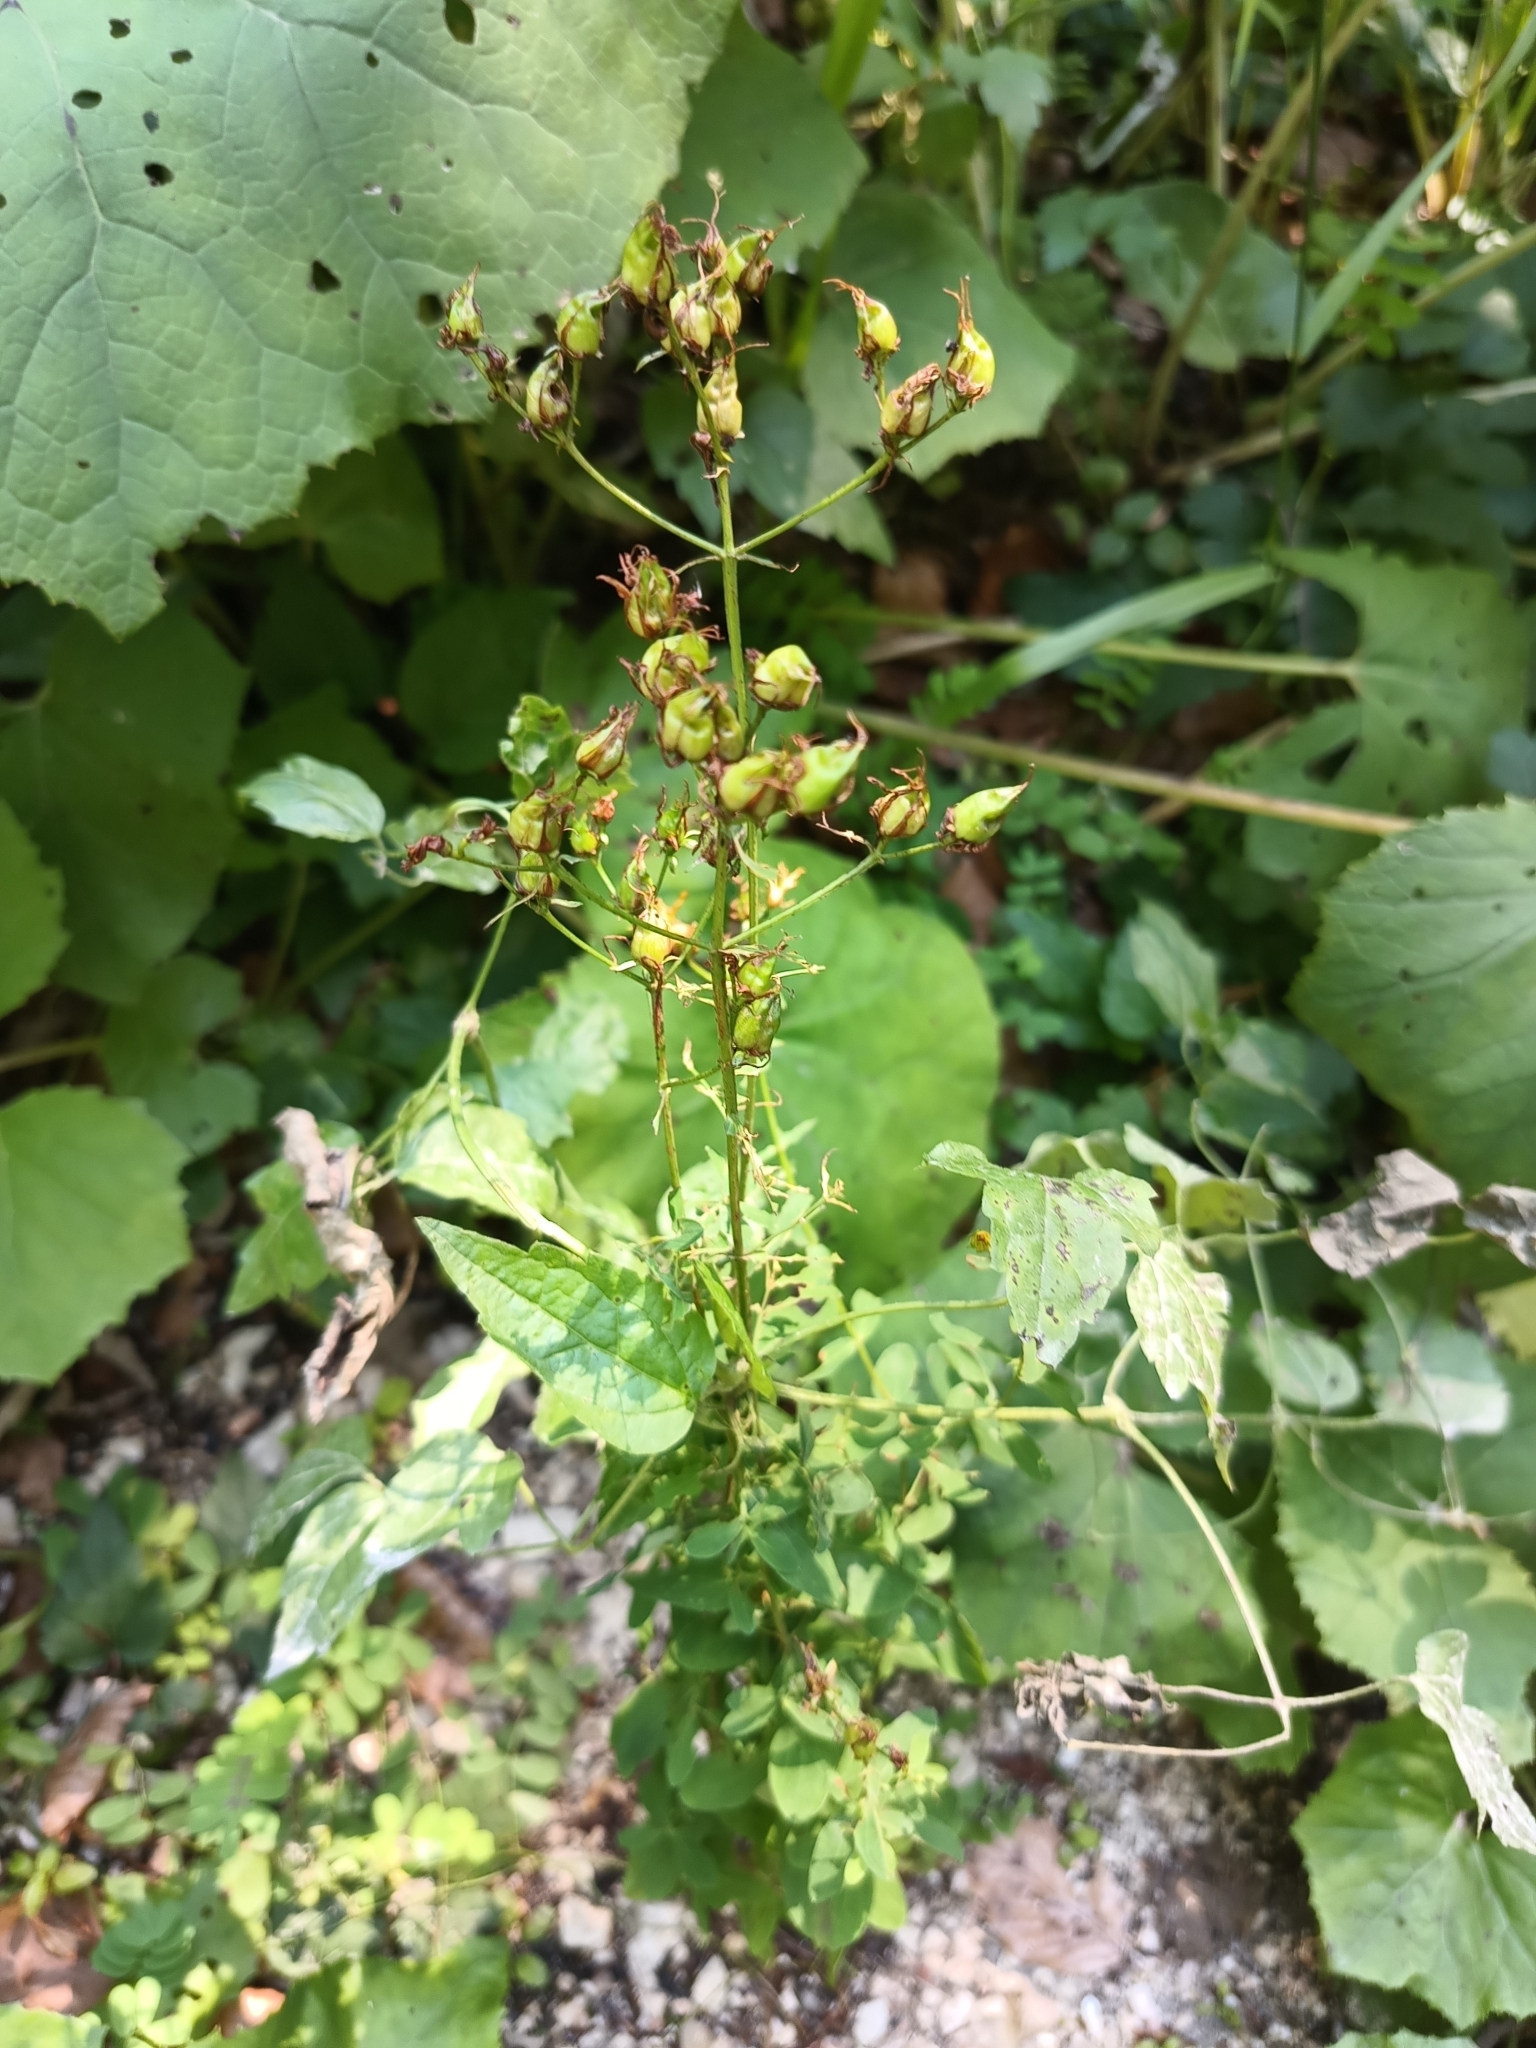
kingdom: Plantae
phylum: Tracheophyta
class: Magnoliopsida
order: Malpighiales
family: Hypericaceae
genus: Hypericum
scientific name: Hypericum perforatum
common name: Common st. johnswort
